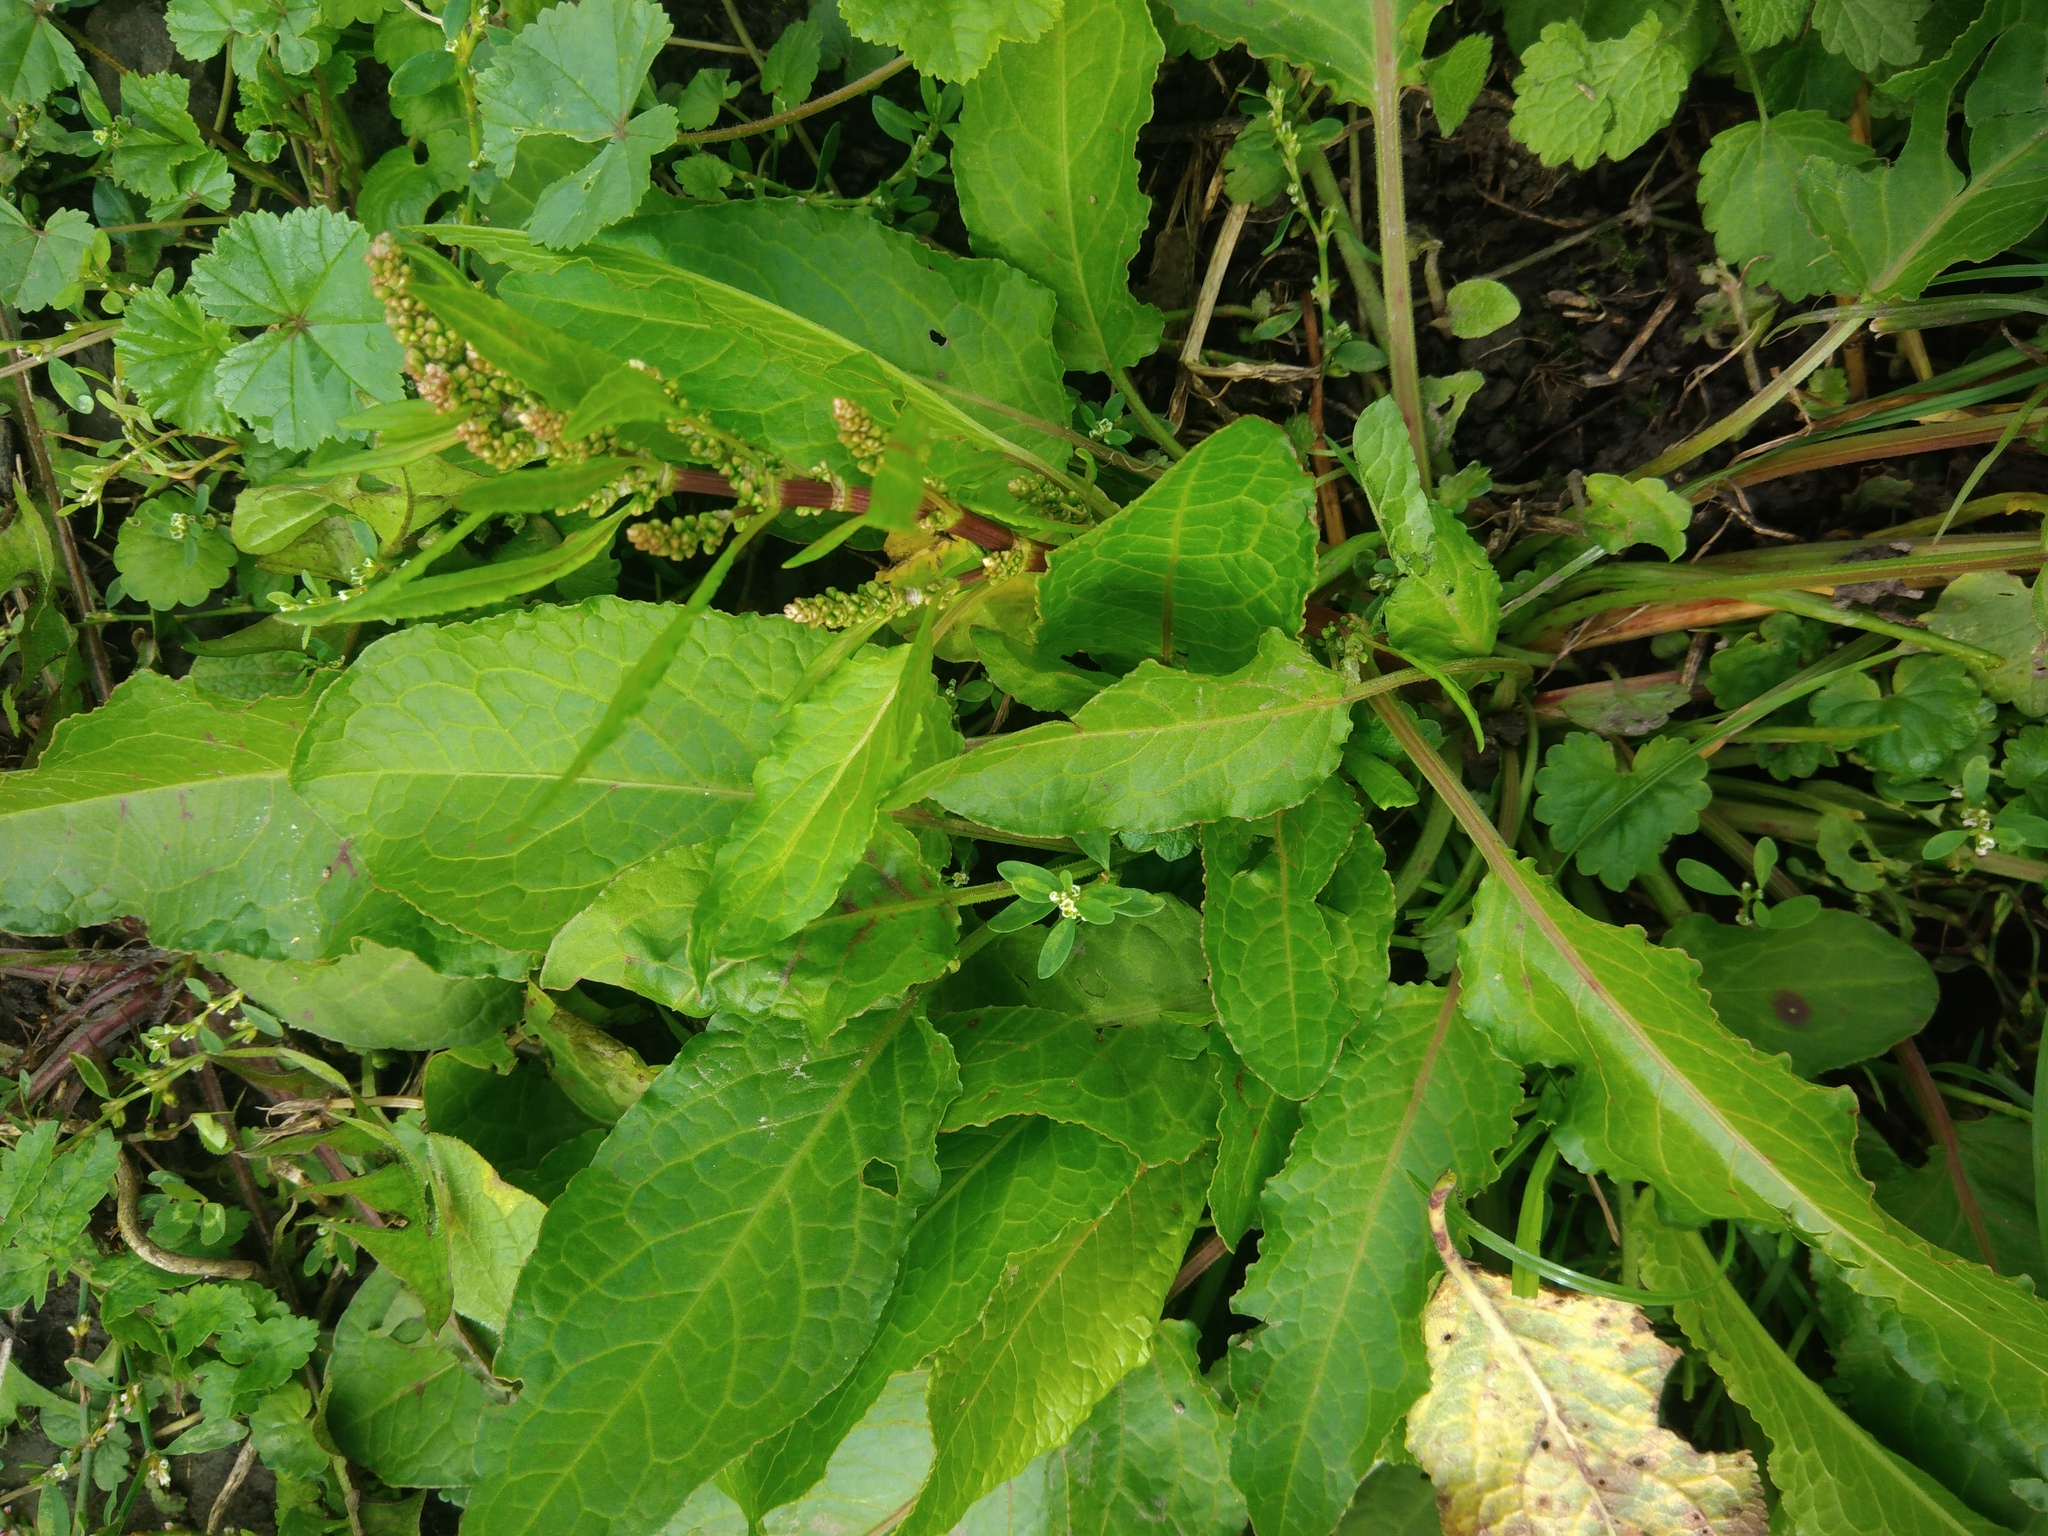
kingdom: Plantae
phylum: Tracheophyta
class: Magnoliopsida
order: Caryophyllales
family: Polygonaceae
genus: Rumex
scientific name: Rumex obtusifolius
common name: Bitter dock
